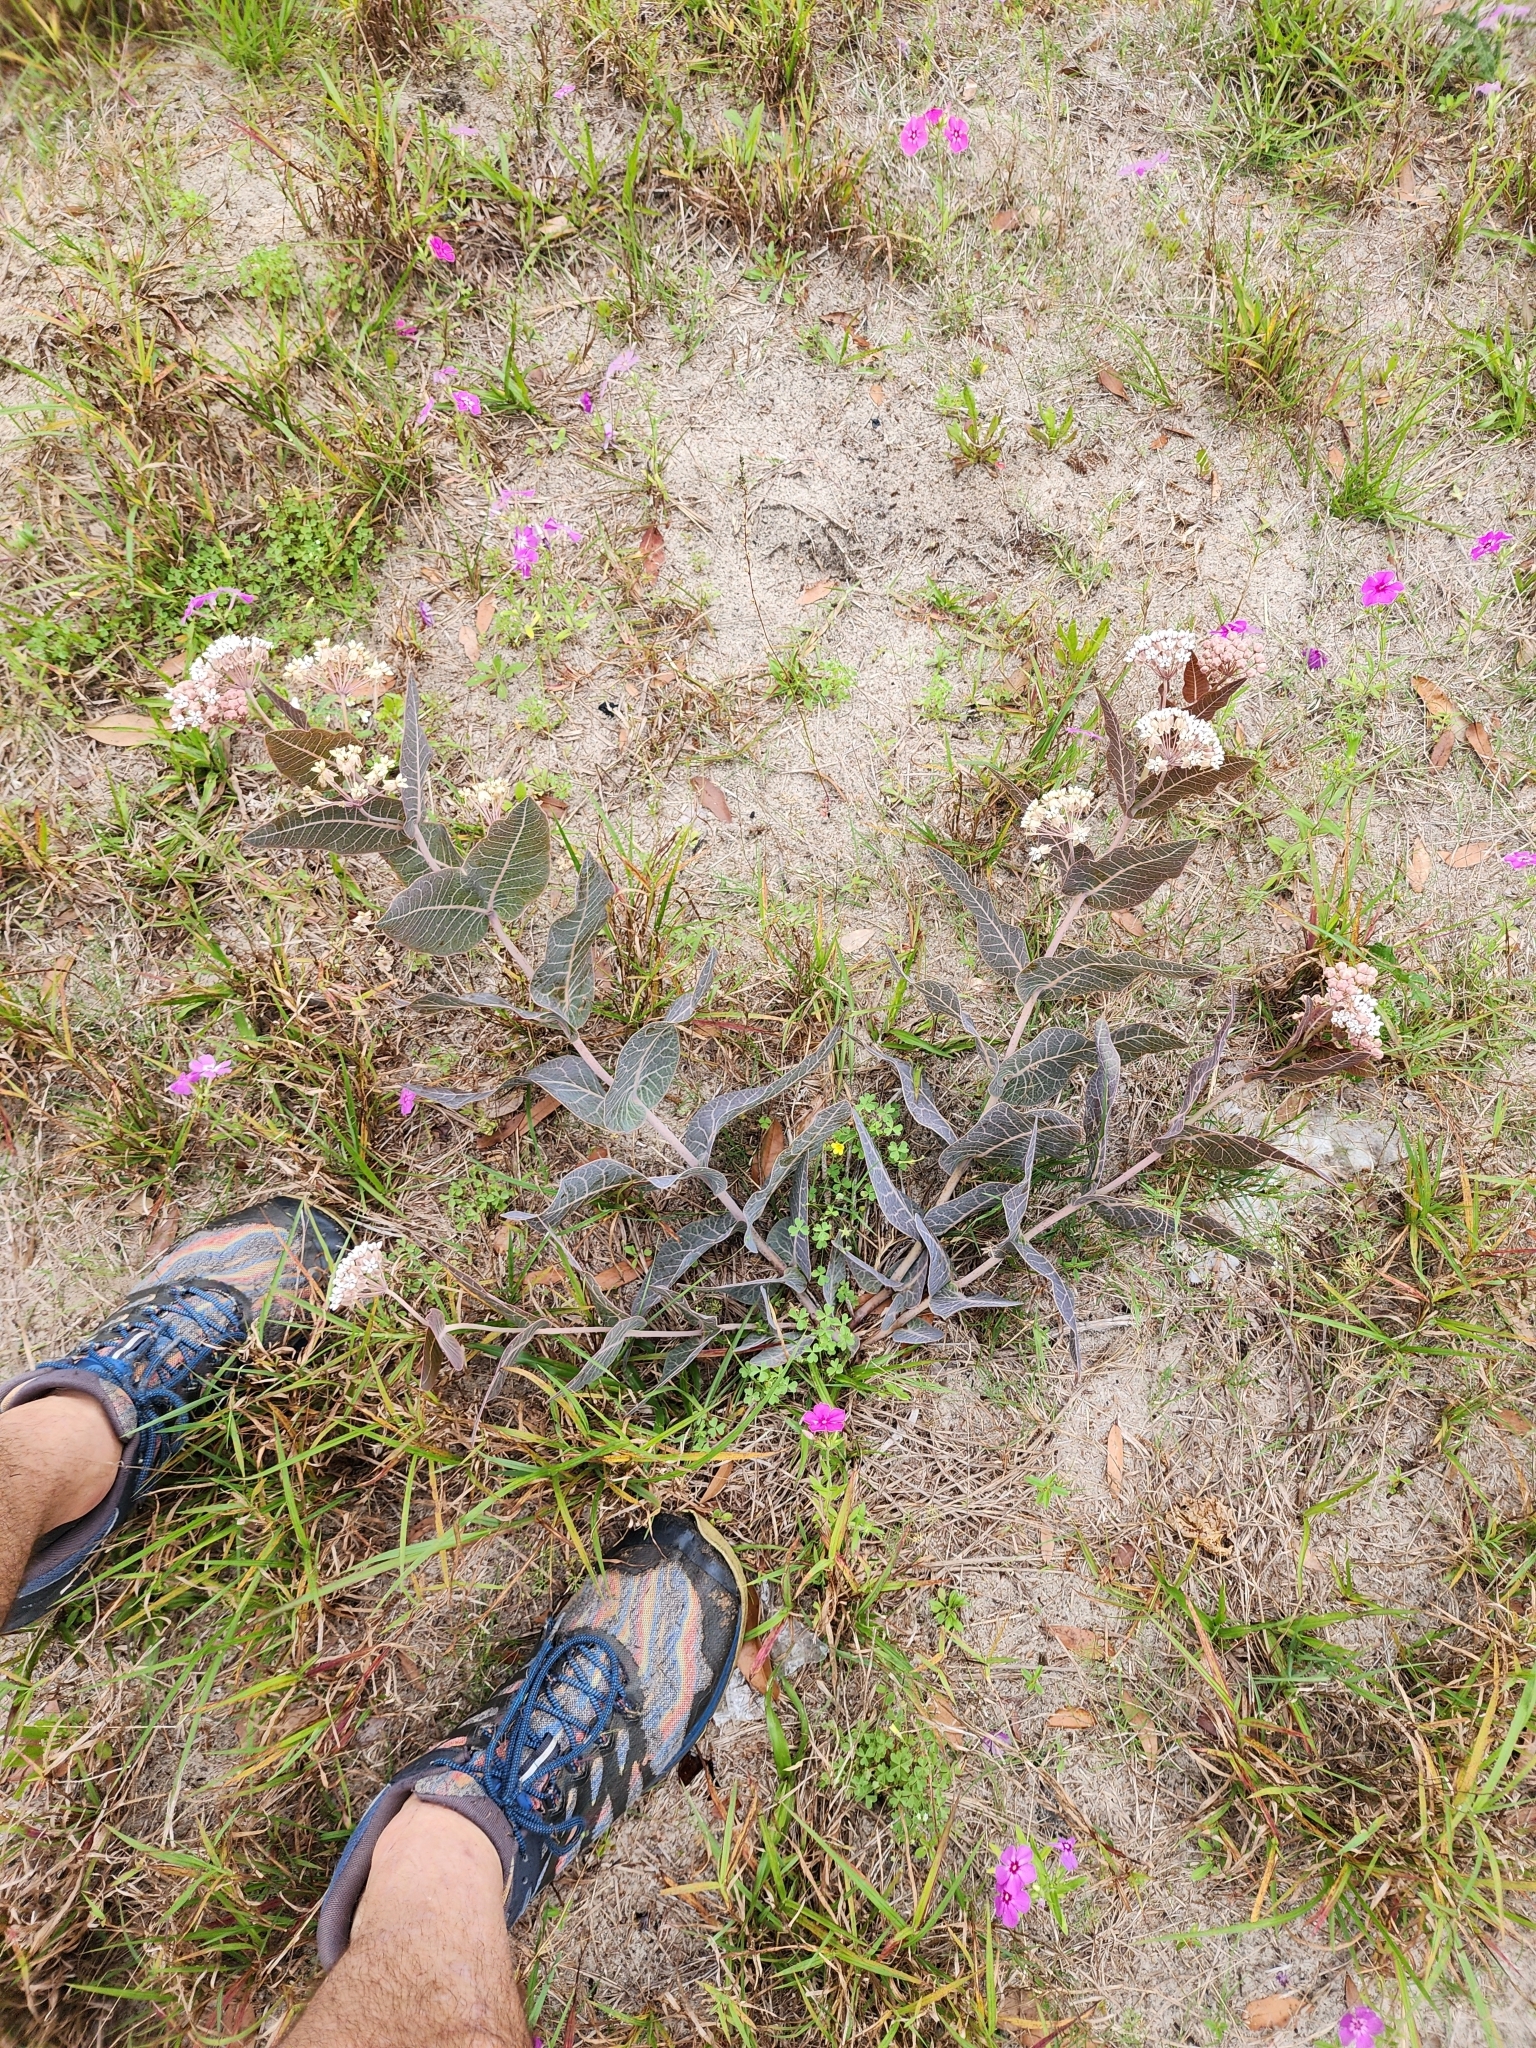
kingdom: Plantae
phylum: Tracheophyta
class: Magnoliopsida
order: Gentianales
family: Apocynaceae
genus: Asclepias
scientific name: Asclepias humistrata
